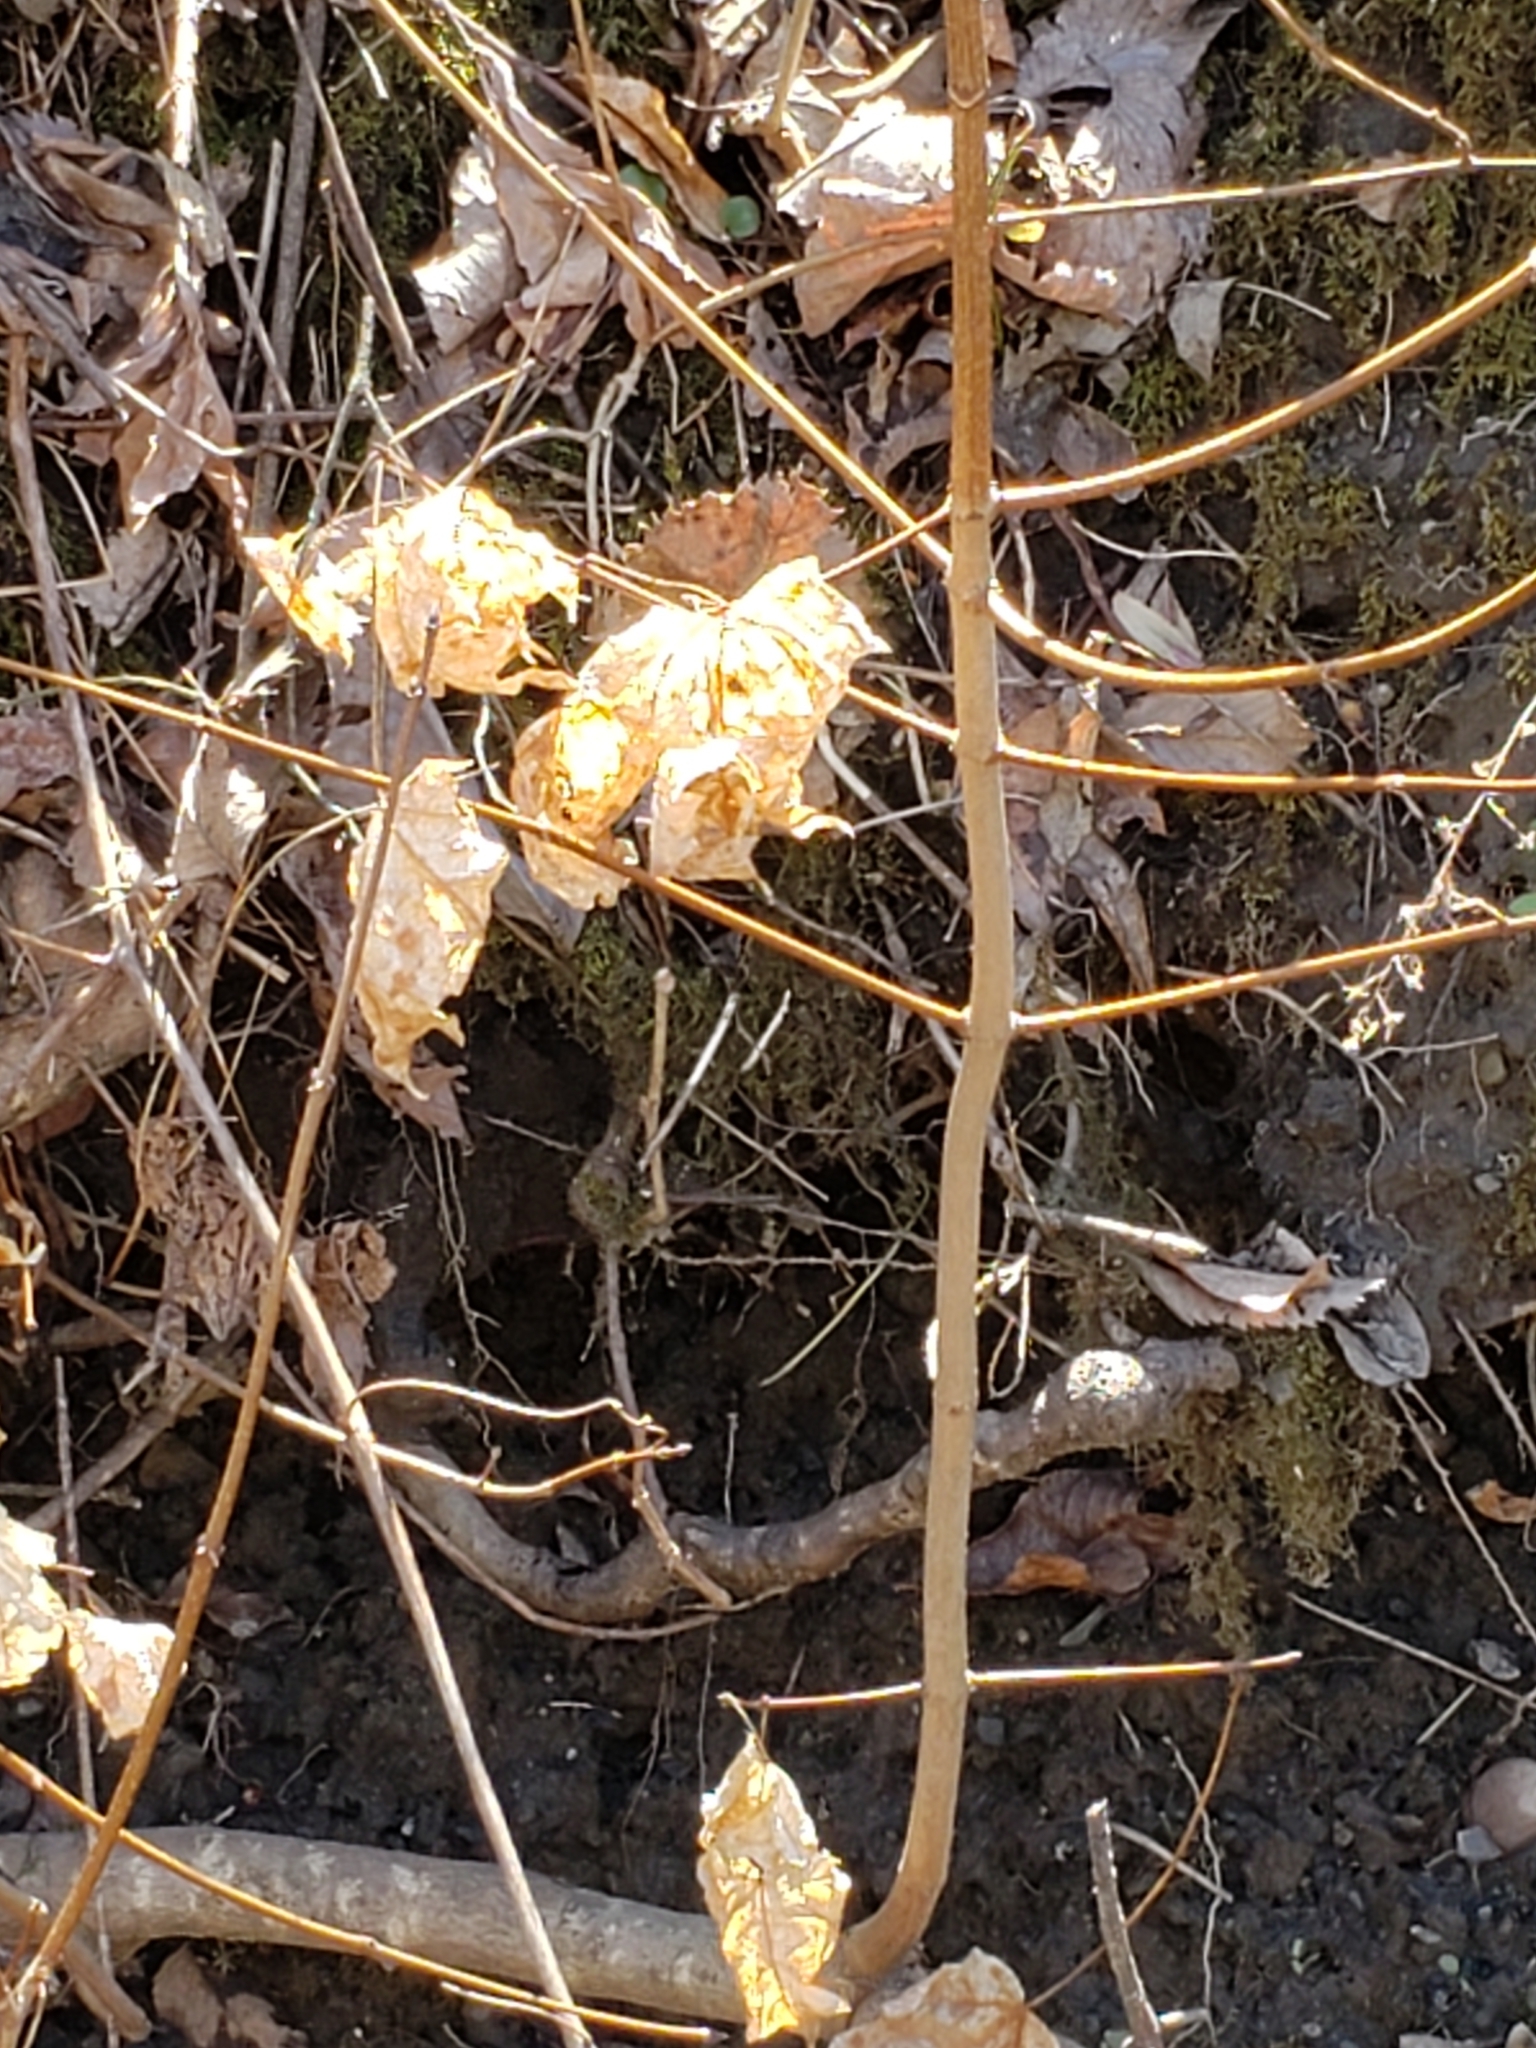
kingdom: Plantae
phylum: Tracheophyta
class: Magnoliopsida
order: Sapindales
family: Sapindaceae
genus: Acer
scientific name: Acer platanoides
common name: Norway maple
